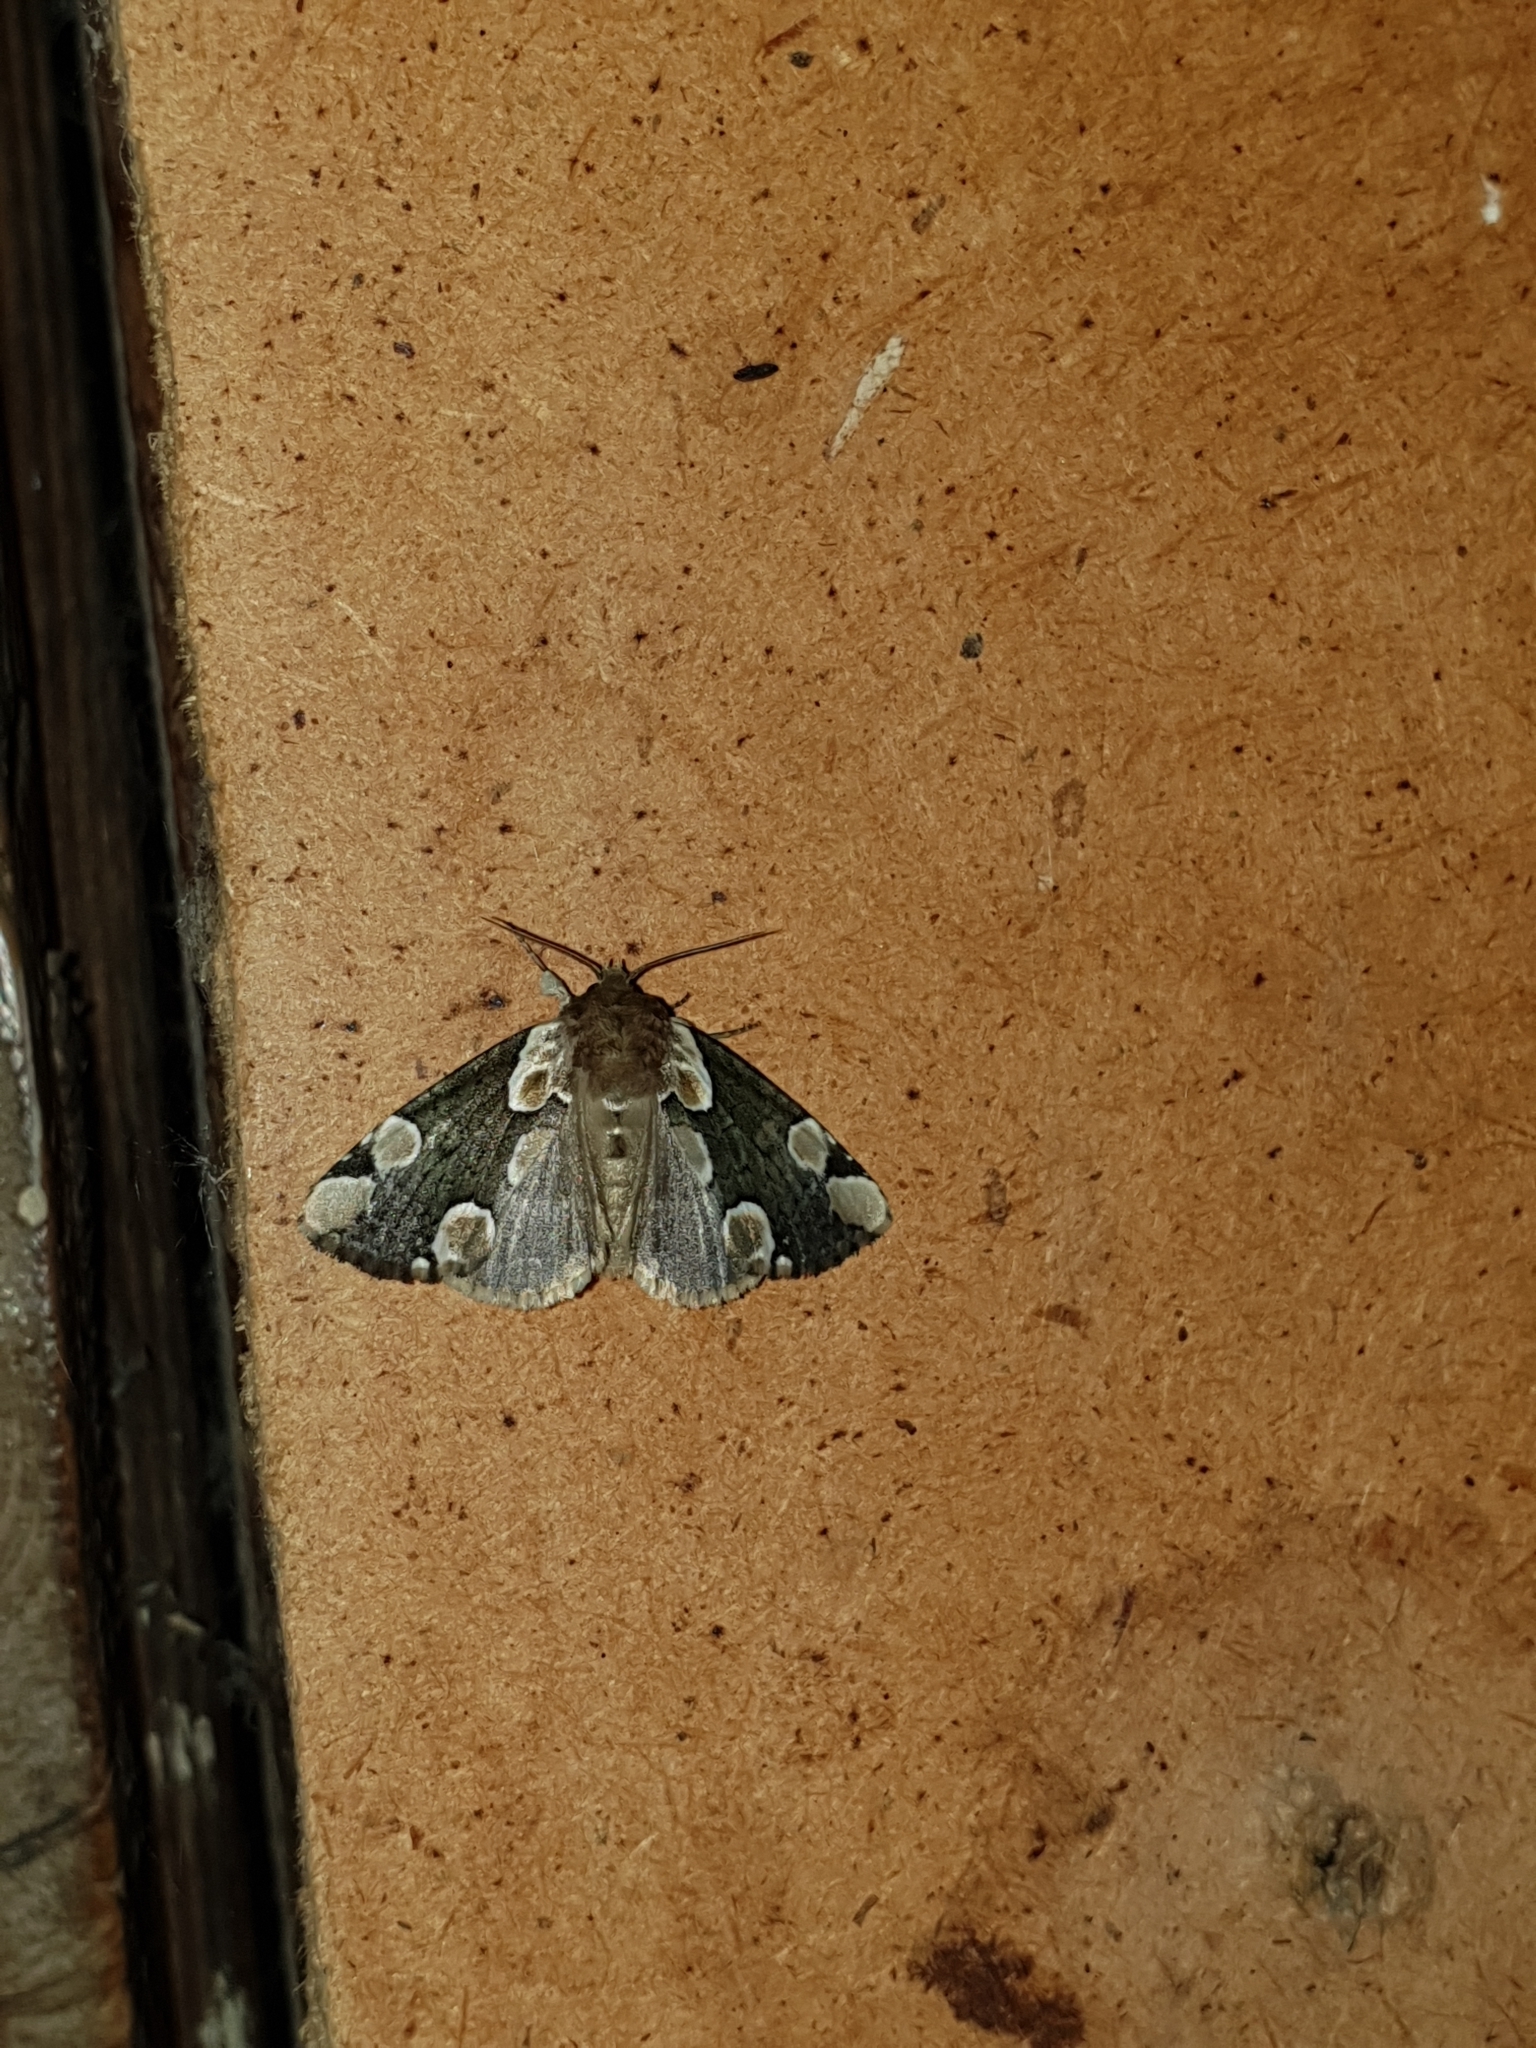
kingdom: Animalia
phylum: Arthropoda
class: Insecta
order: Lepidoptera
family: Drepanidae
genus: Thyatira
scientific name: Thyatira batis
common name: Peach blossom
